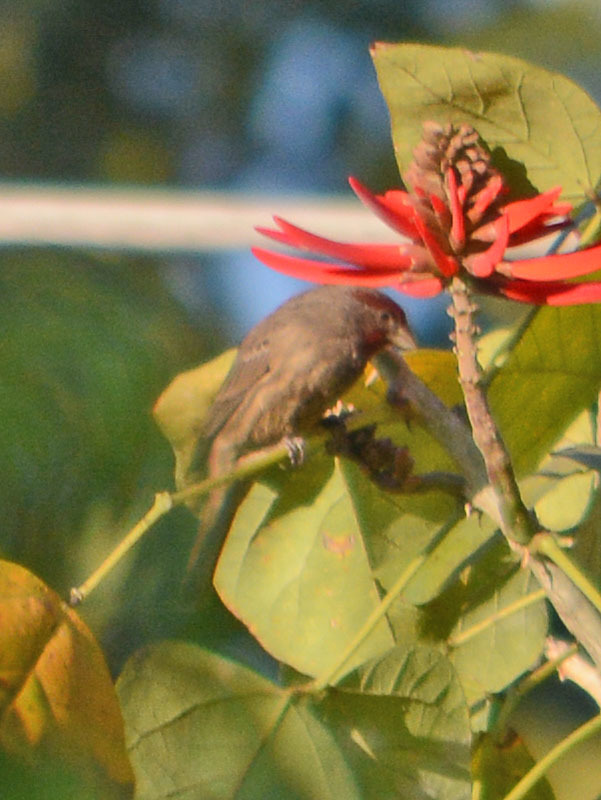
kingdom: Animalia
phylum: Chordata
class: Aves
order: Passeriformes
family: Fringillidae
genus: Haemorhous
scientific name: Haemorhous mexicanus
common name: House finch
